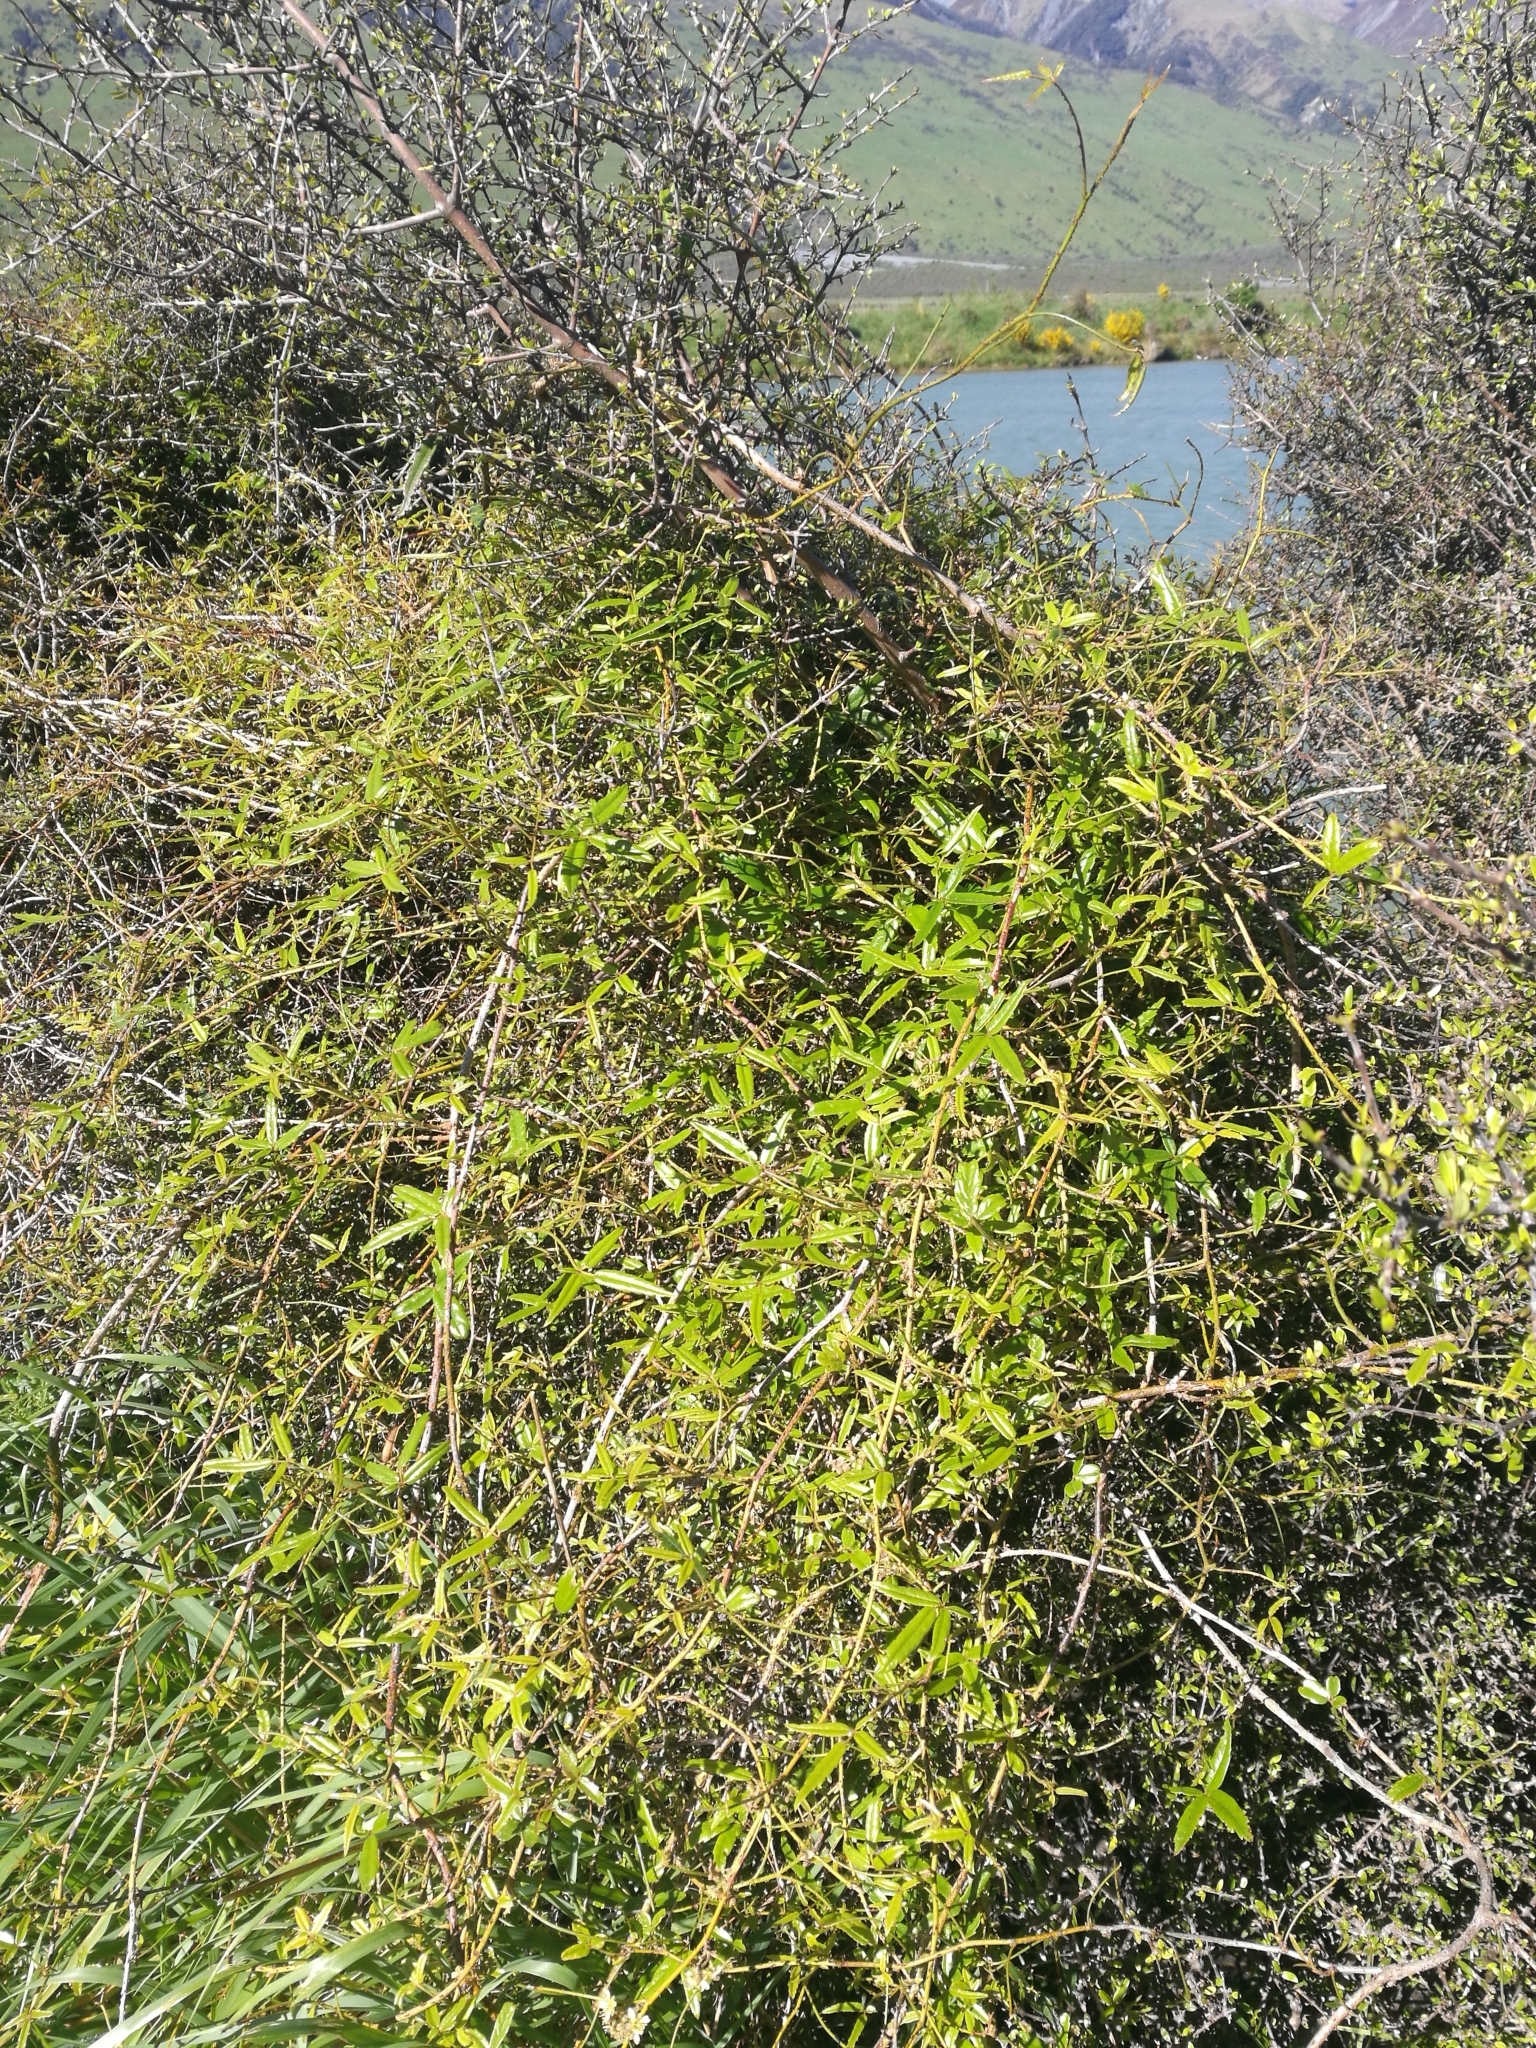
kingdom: Plantae
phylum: Tracheophyta
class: Magnoliopsida
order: Rosales
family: Rosaceae
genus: Rubus
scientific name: Rubus schmidelioides
